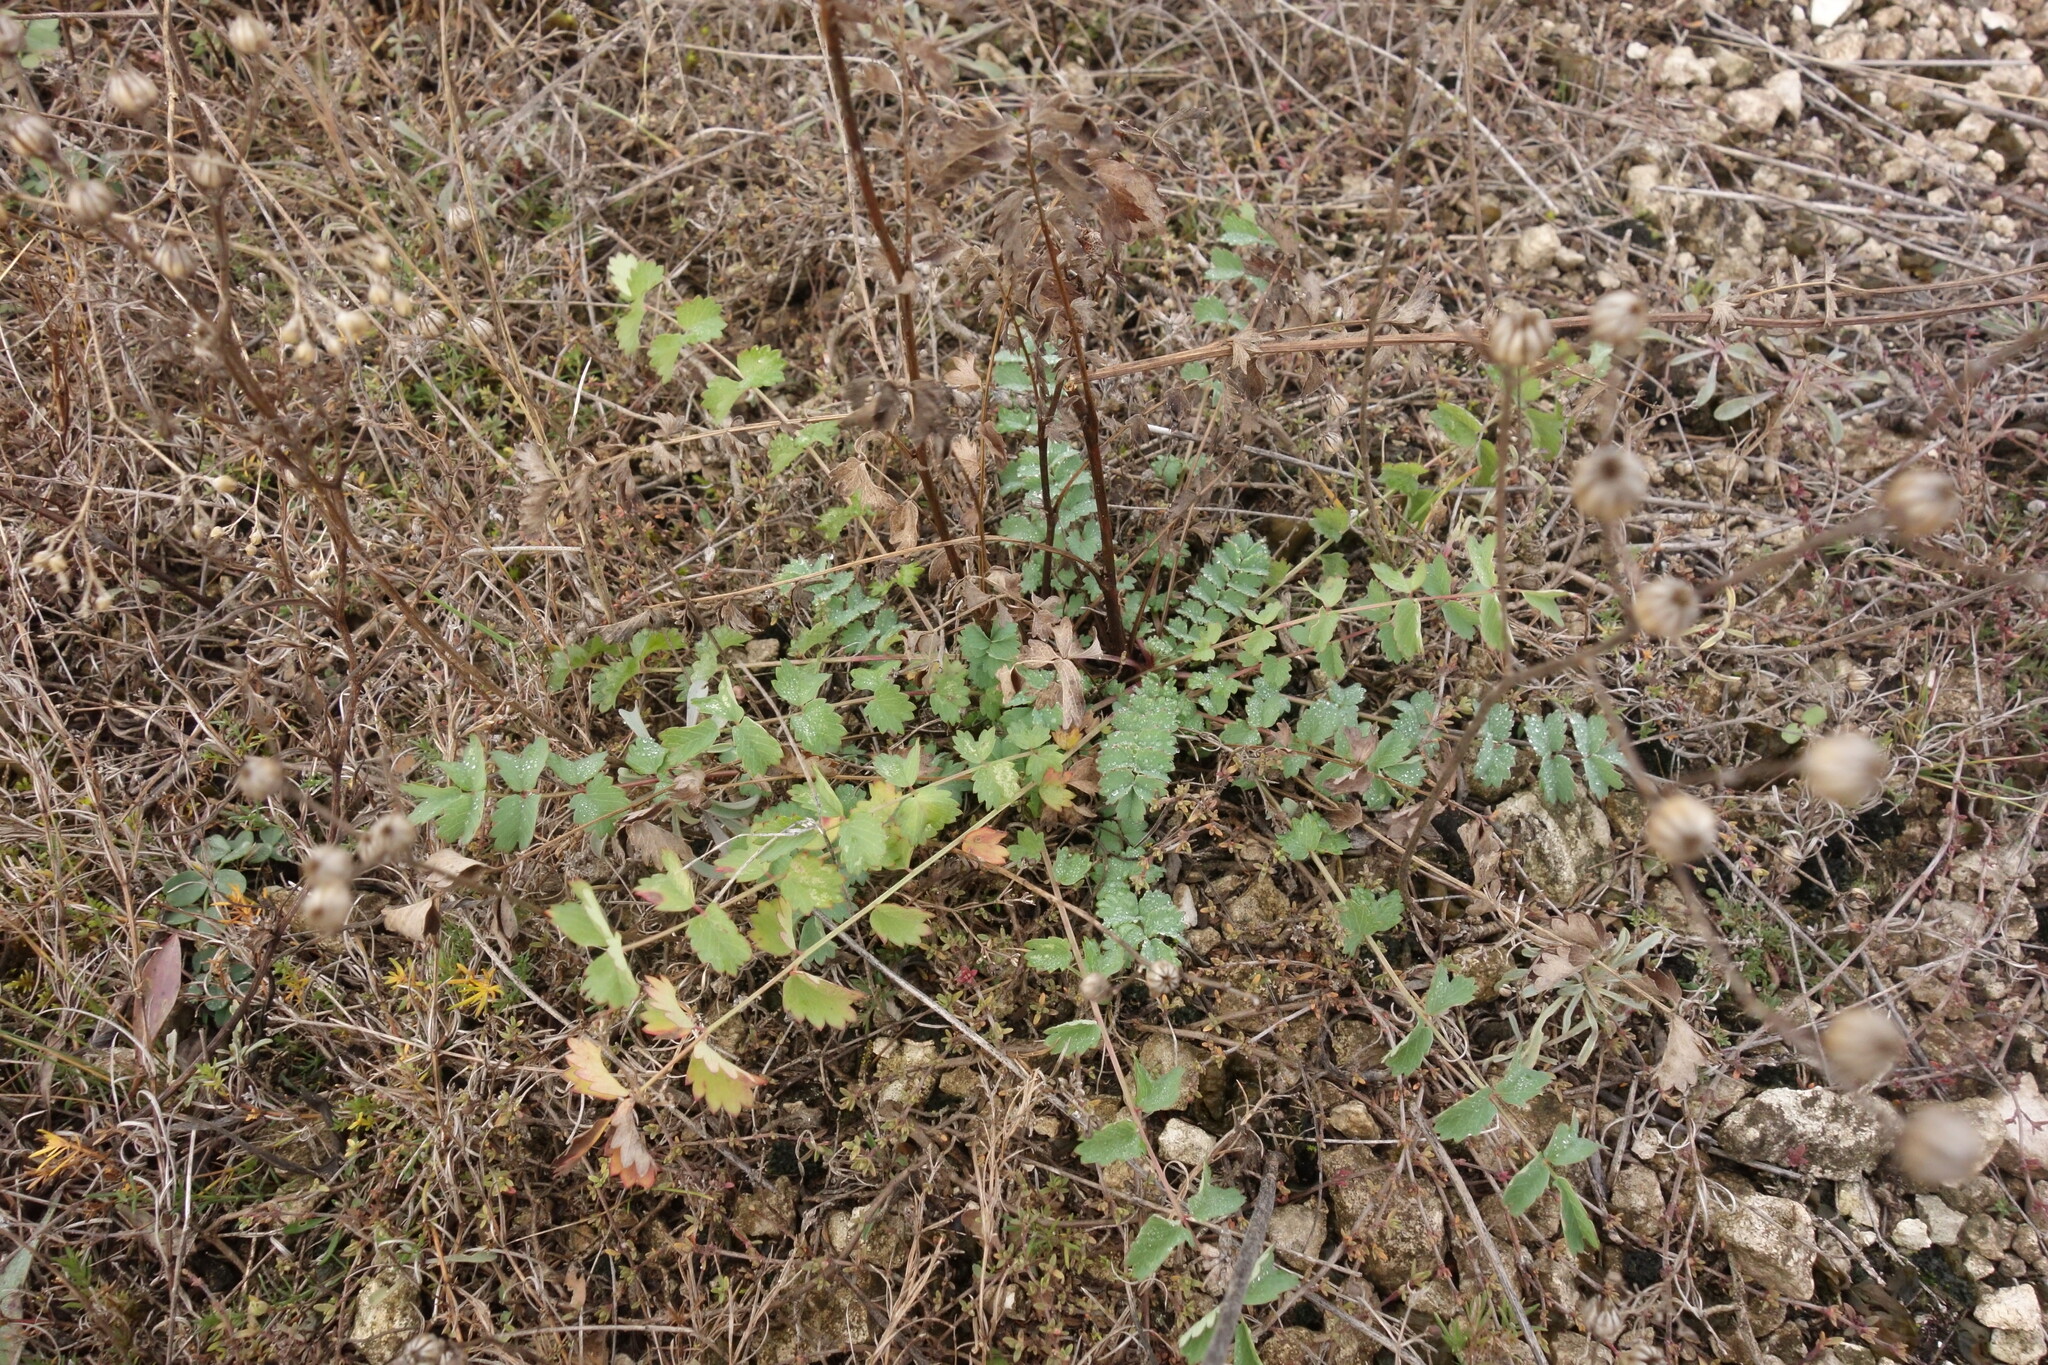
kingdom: Plantae
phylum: Tracheophyta
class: Magnoliopsida
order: Rosales
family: Rosaceae
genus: Poterium
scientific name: Poterium sanguisorba
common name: Salad burnet
